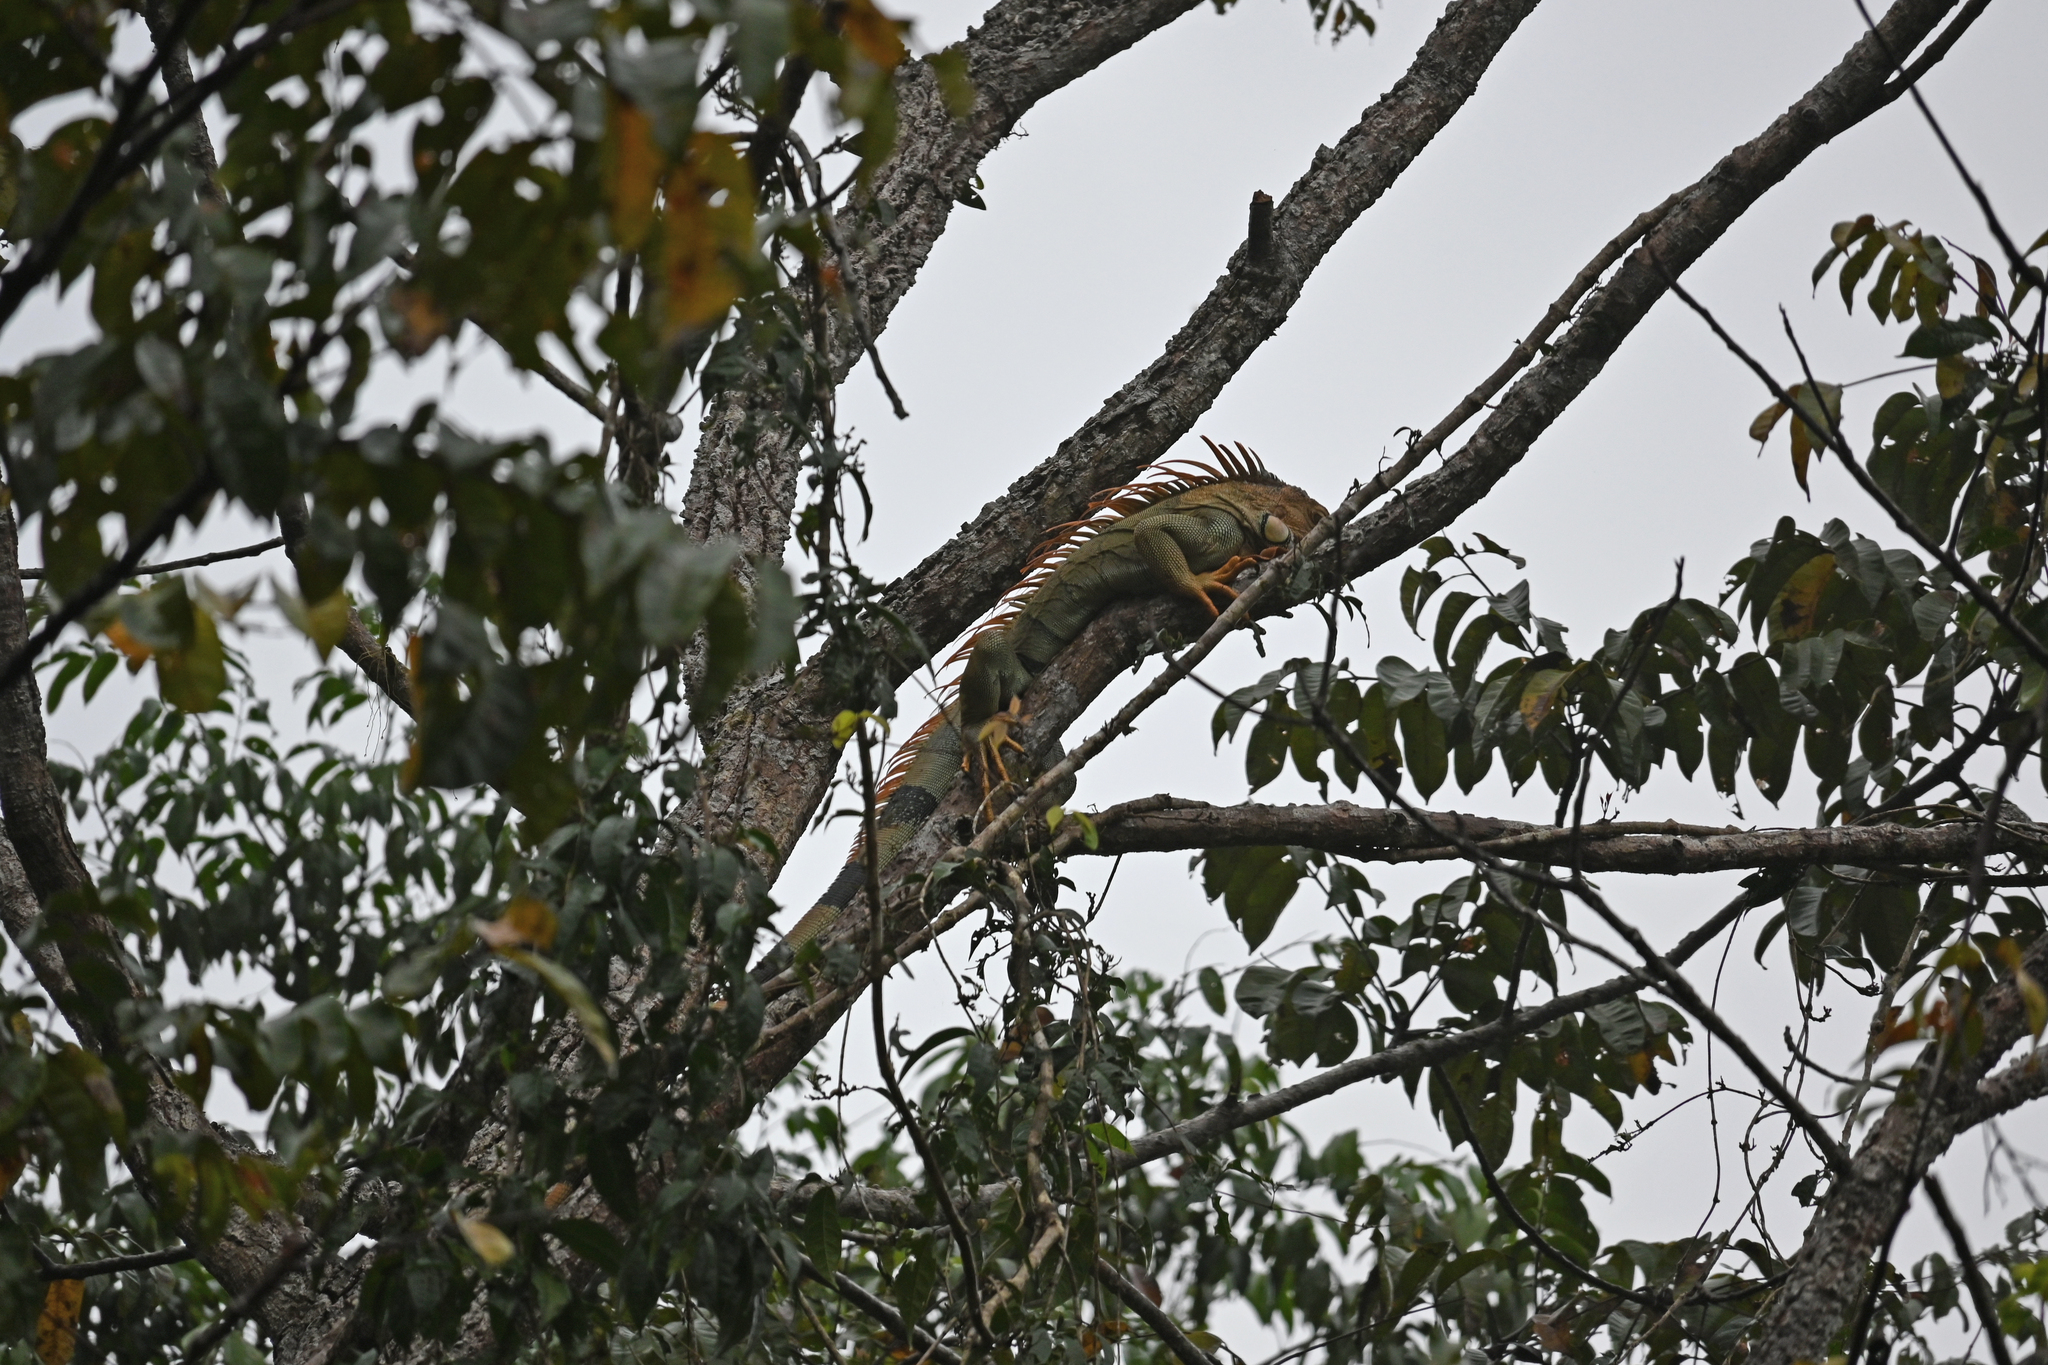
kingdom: Animalia
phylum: Chordata
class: Squamata
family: Iguanidae
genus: Iguana
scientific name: Iguana iguana
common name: Green iguana
